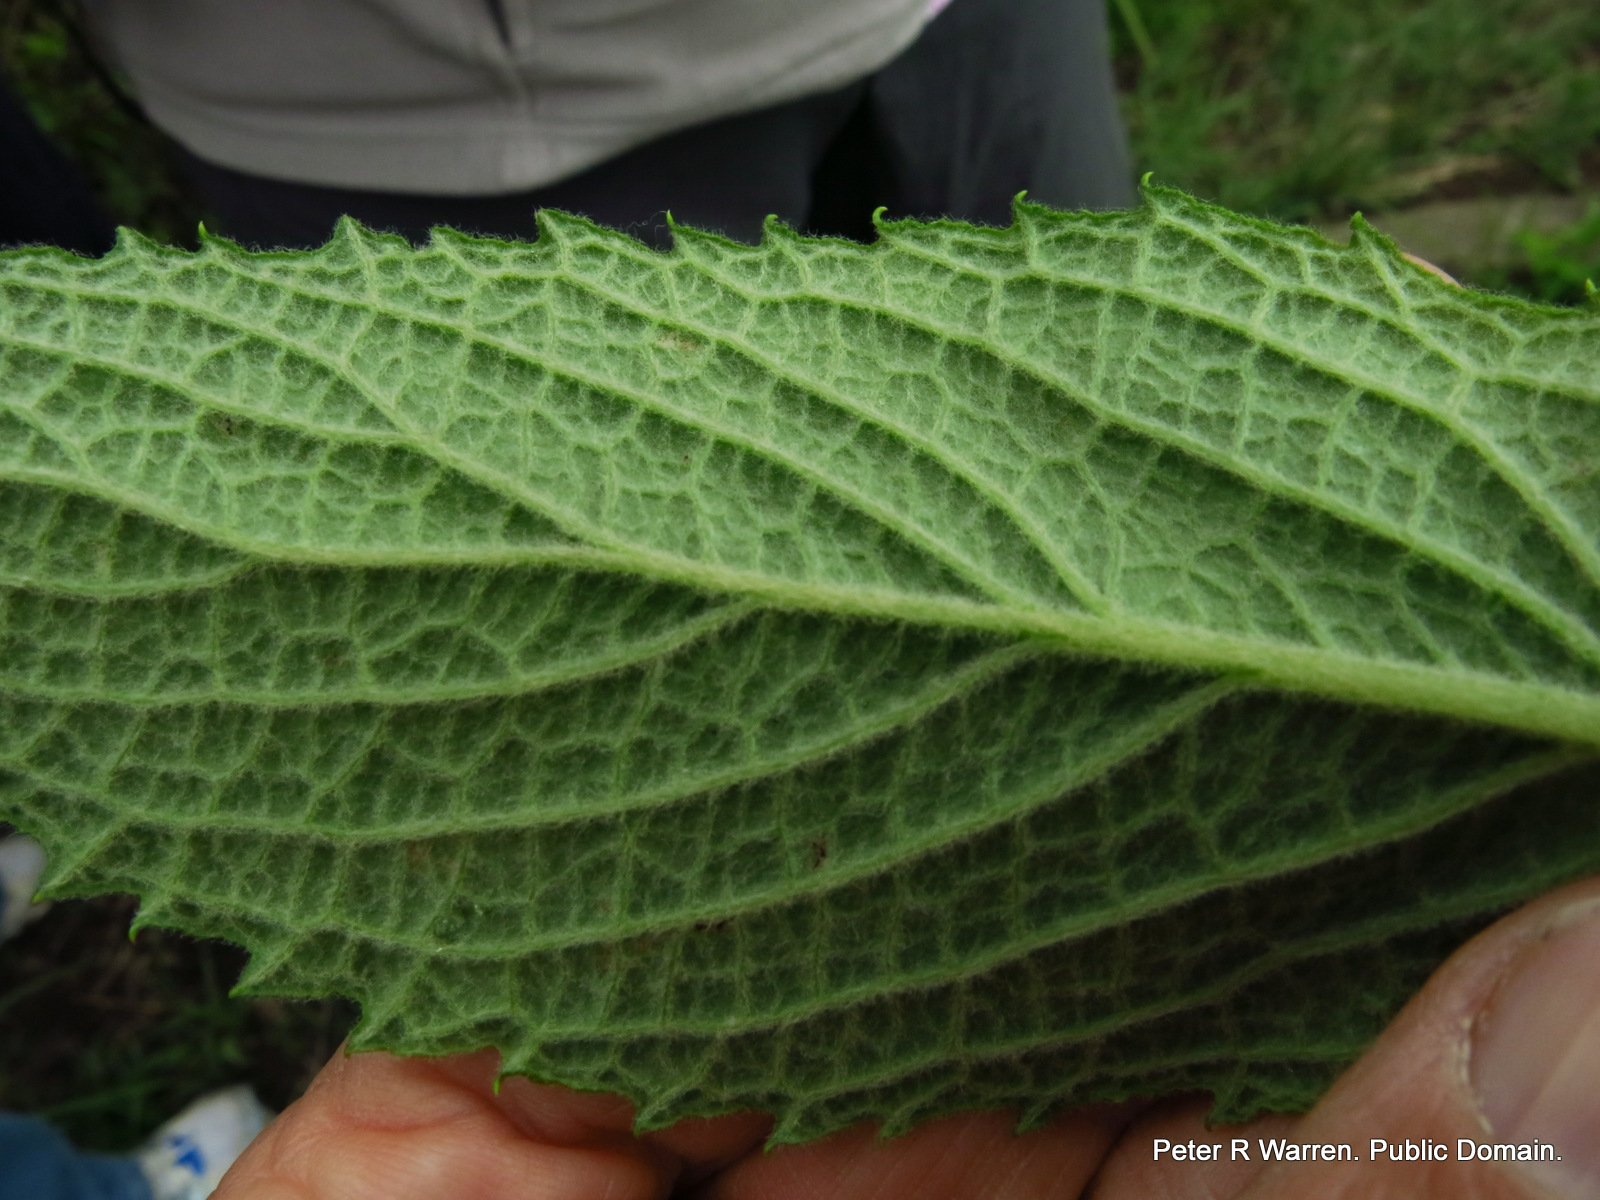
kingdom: Plantae
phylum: Tracheophyta
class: Magnoliopsida
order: Asterales
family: Asteraceae
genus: Hilliardiella
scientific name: Hilliardiella flanaganii
